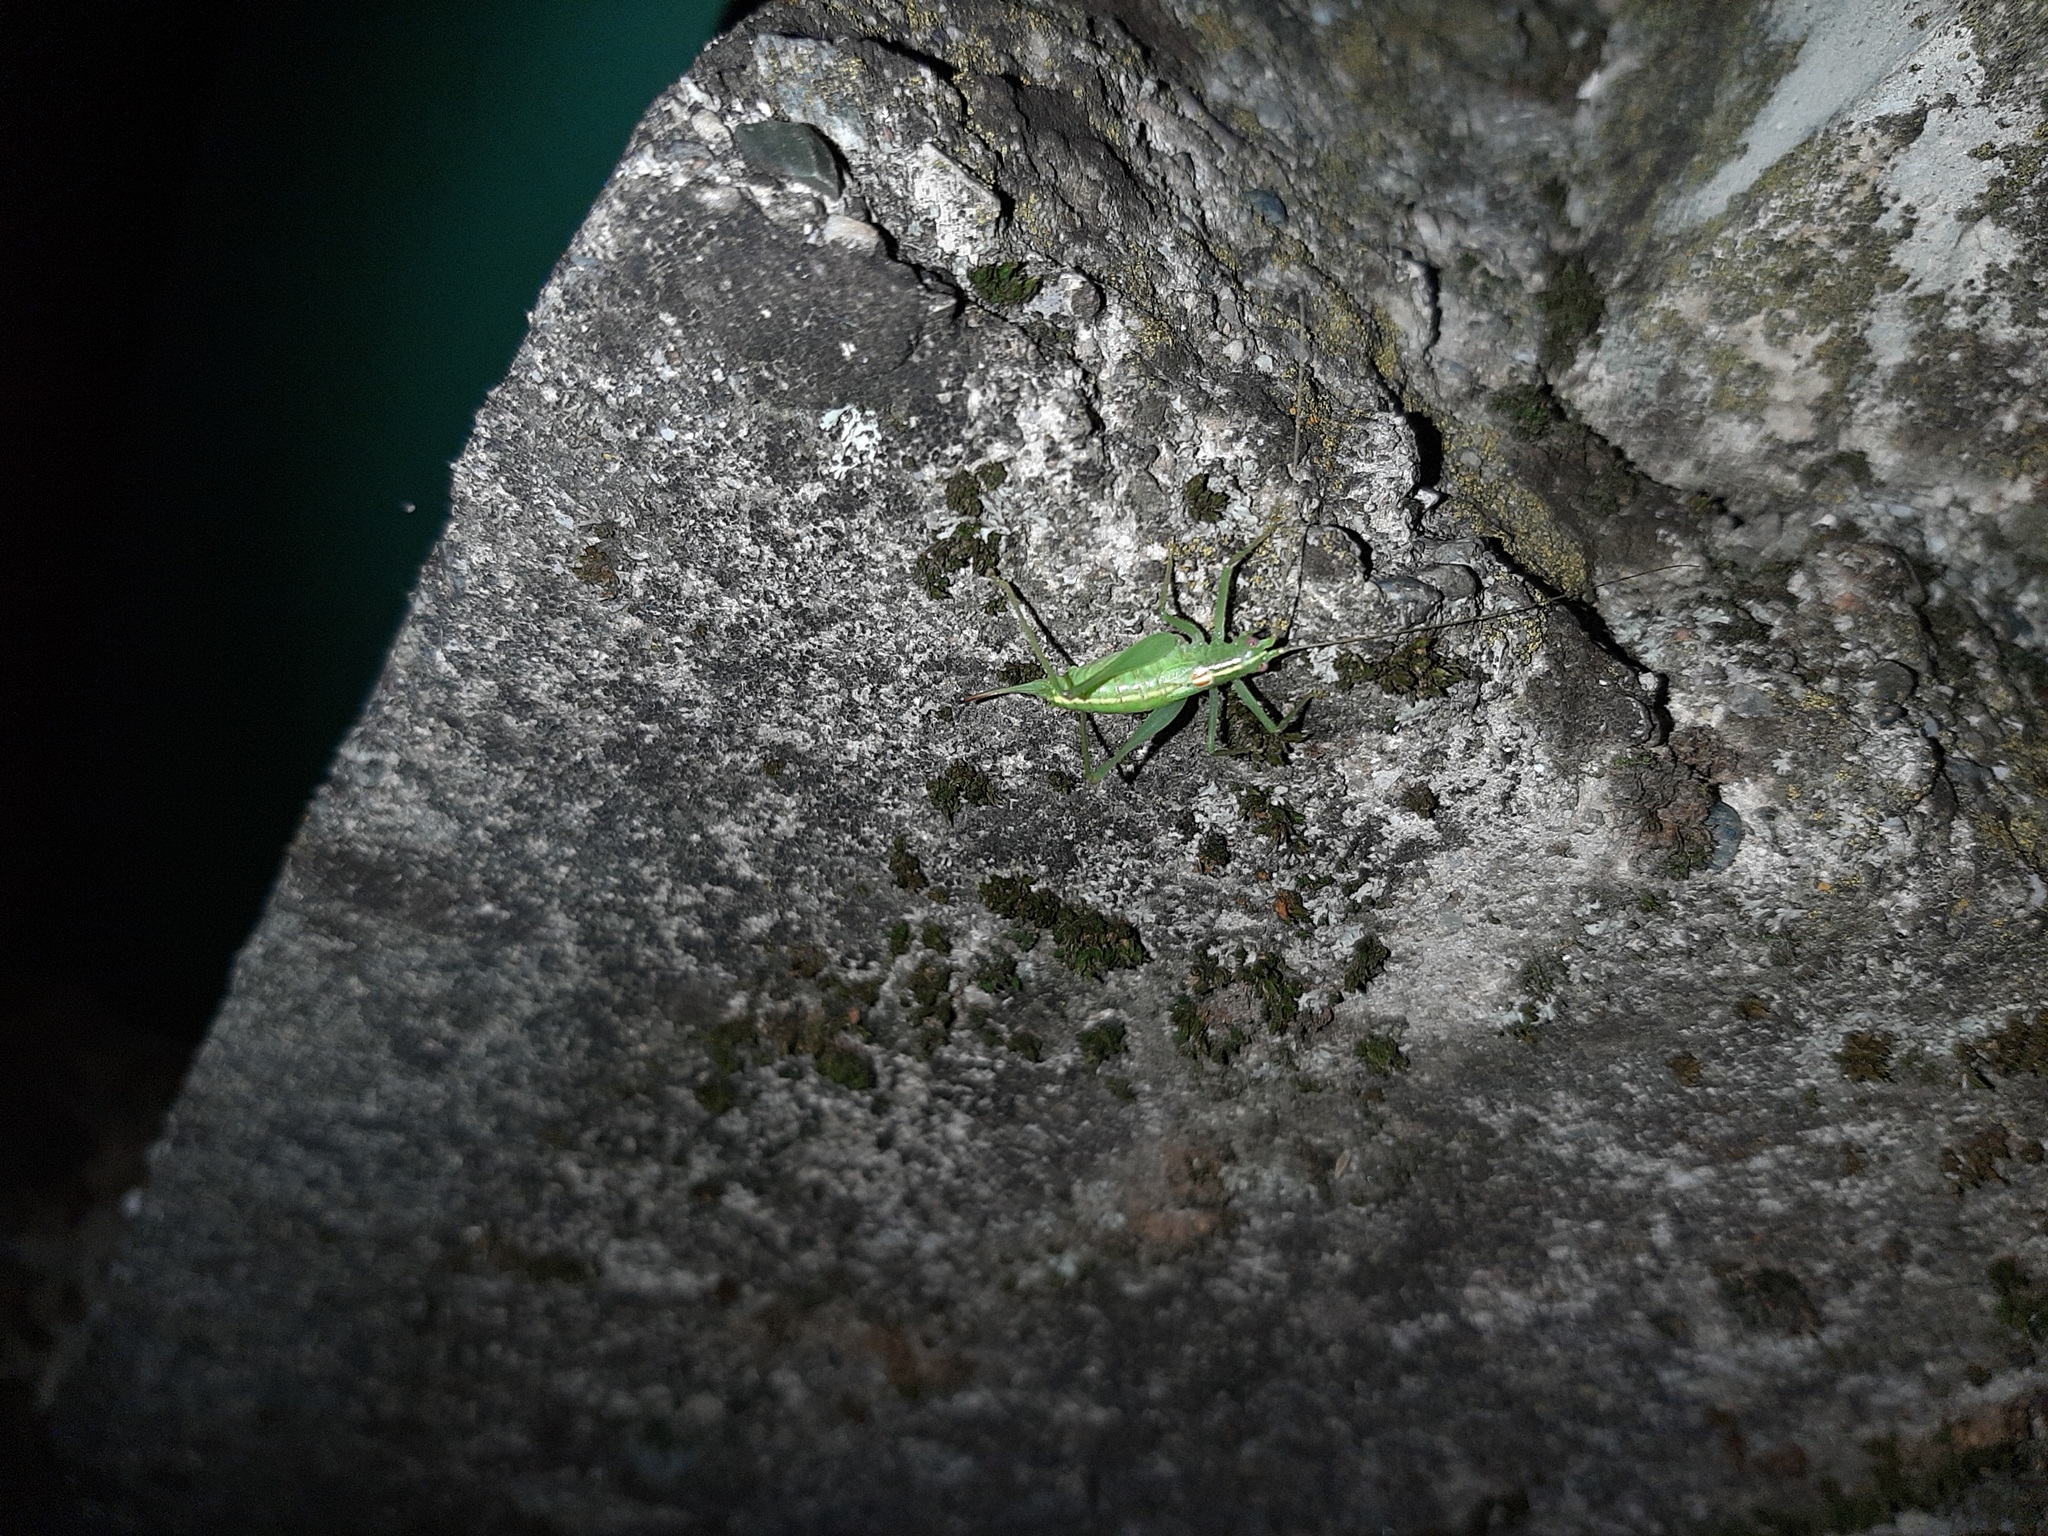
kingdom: Animalia
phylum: Arthropoda
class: Insecta
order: Orthoptera
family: Tettigoniidae
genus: Meconema
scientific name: Meconema meridionale
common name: Southern oak bush-cricket
